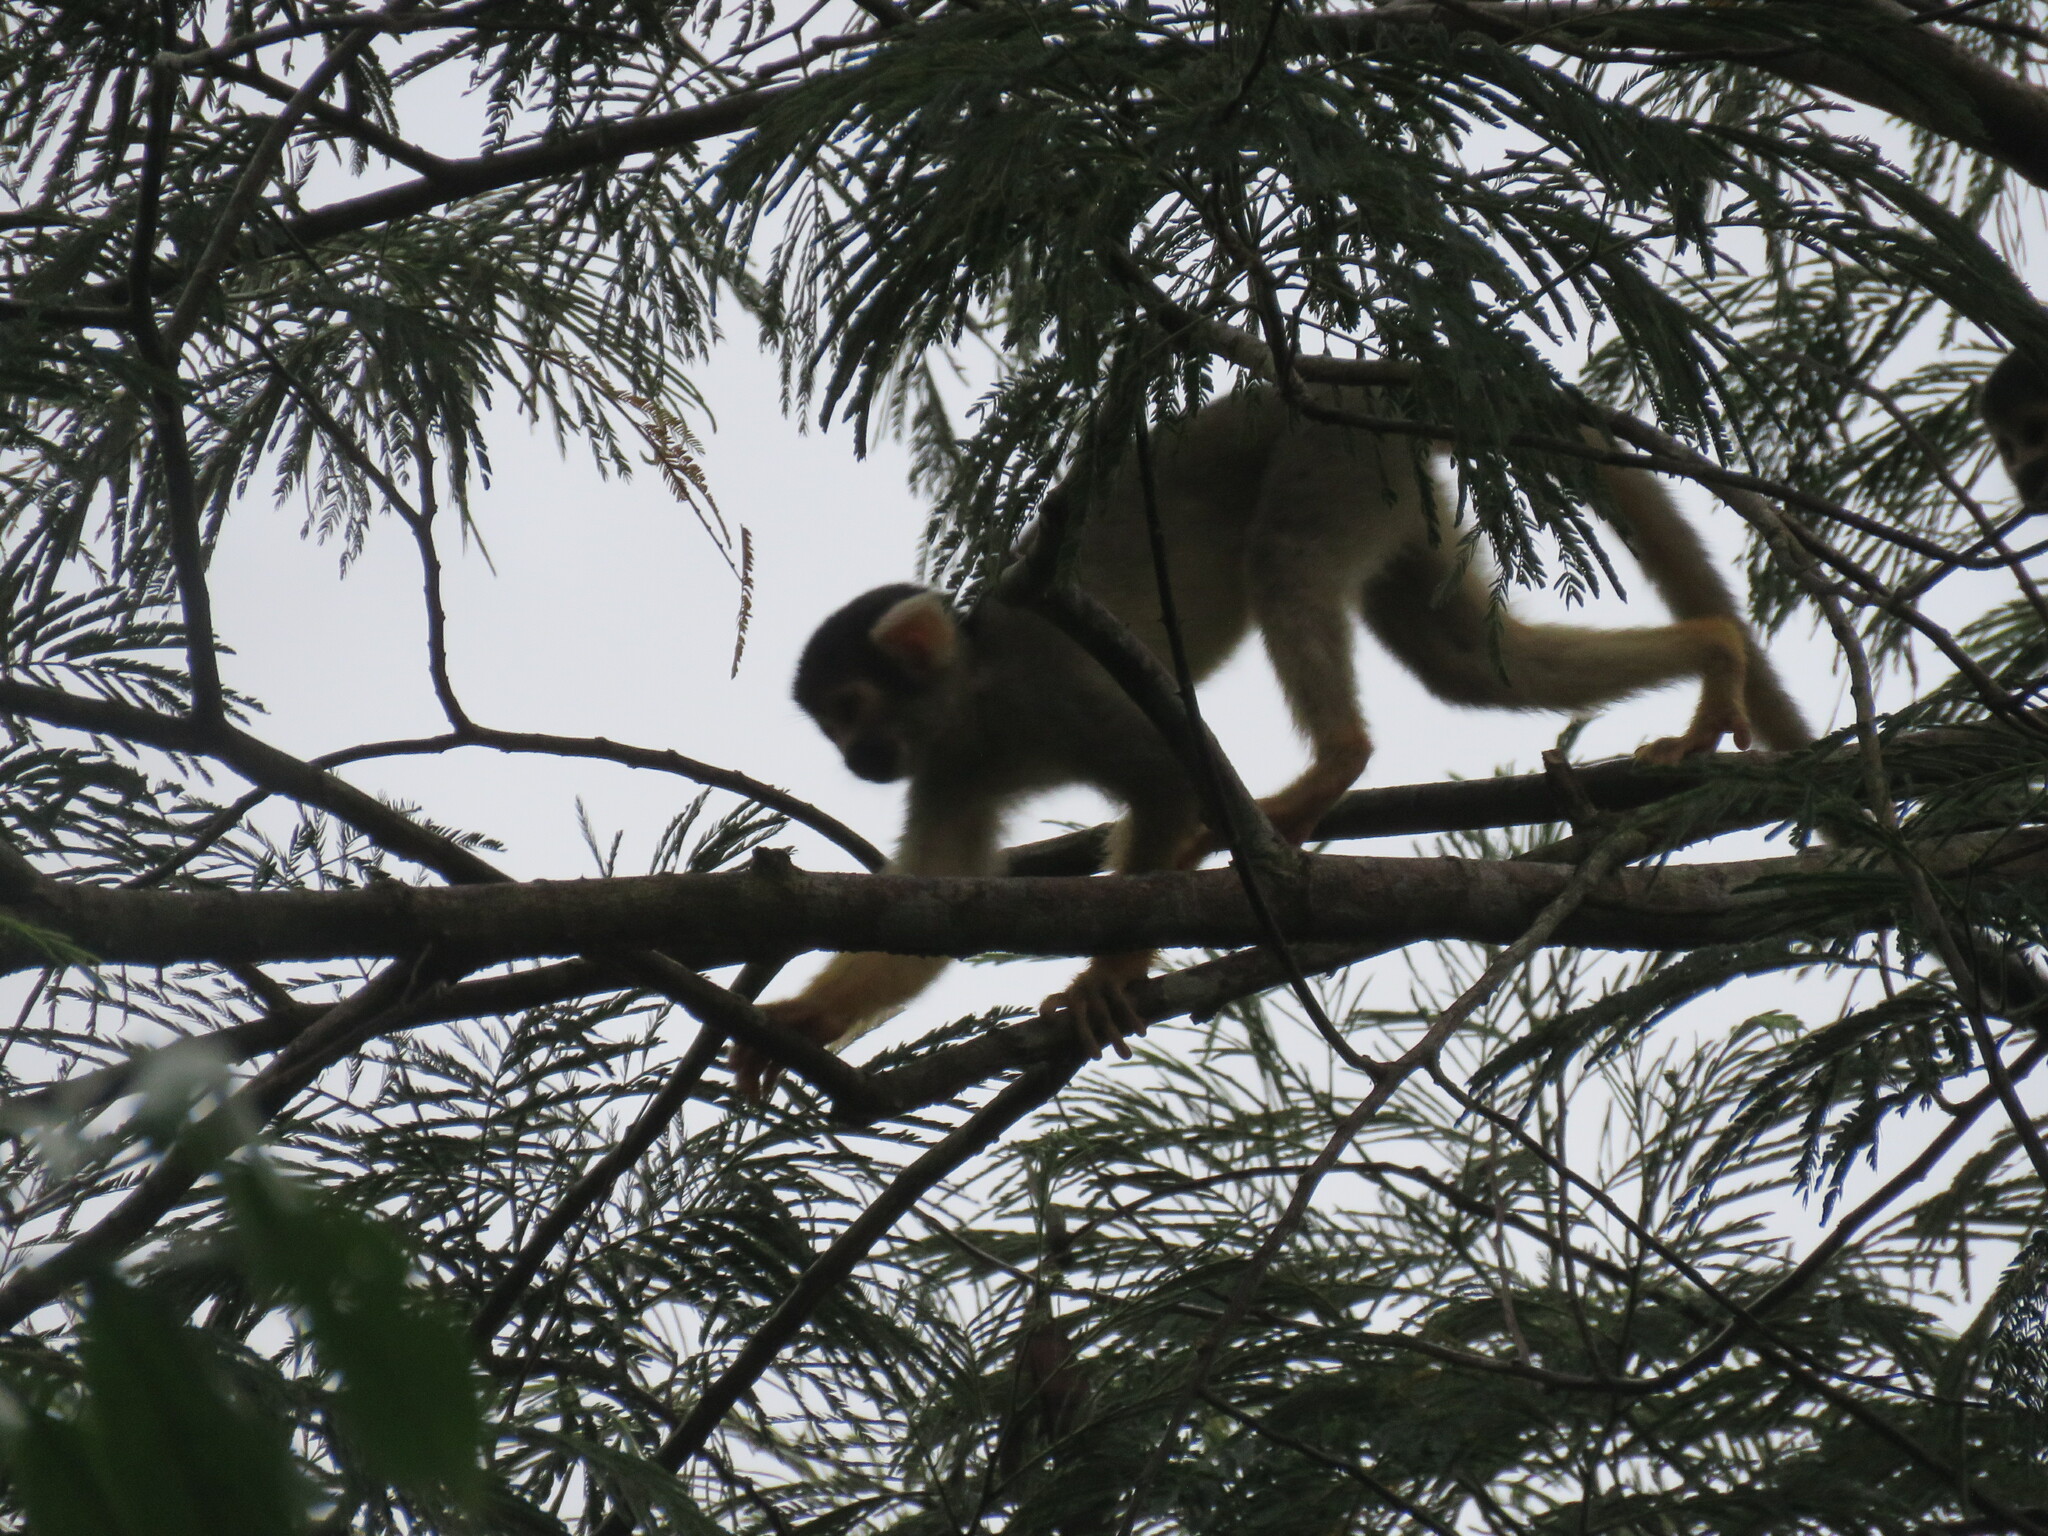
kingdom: Animalia
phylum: Chordata
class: Mammalia
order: Primates
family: Cebidae
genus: Saimiri
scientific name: Saimiri boliviensis
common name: Black-capped squirrel monkey
